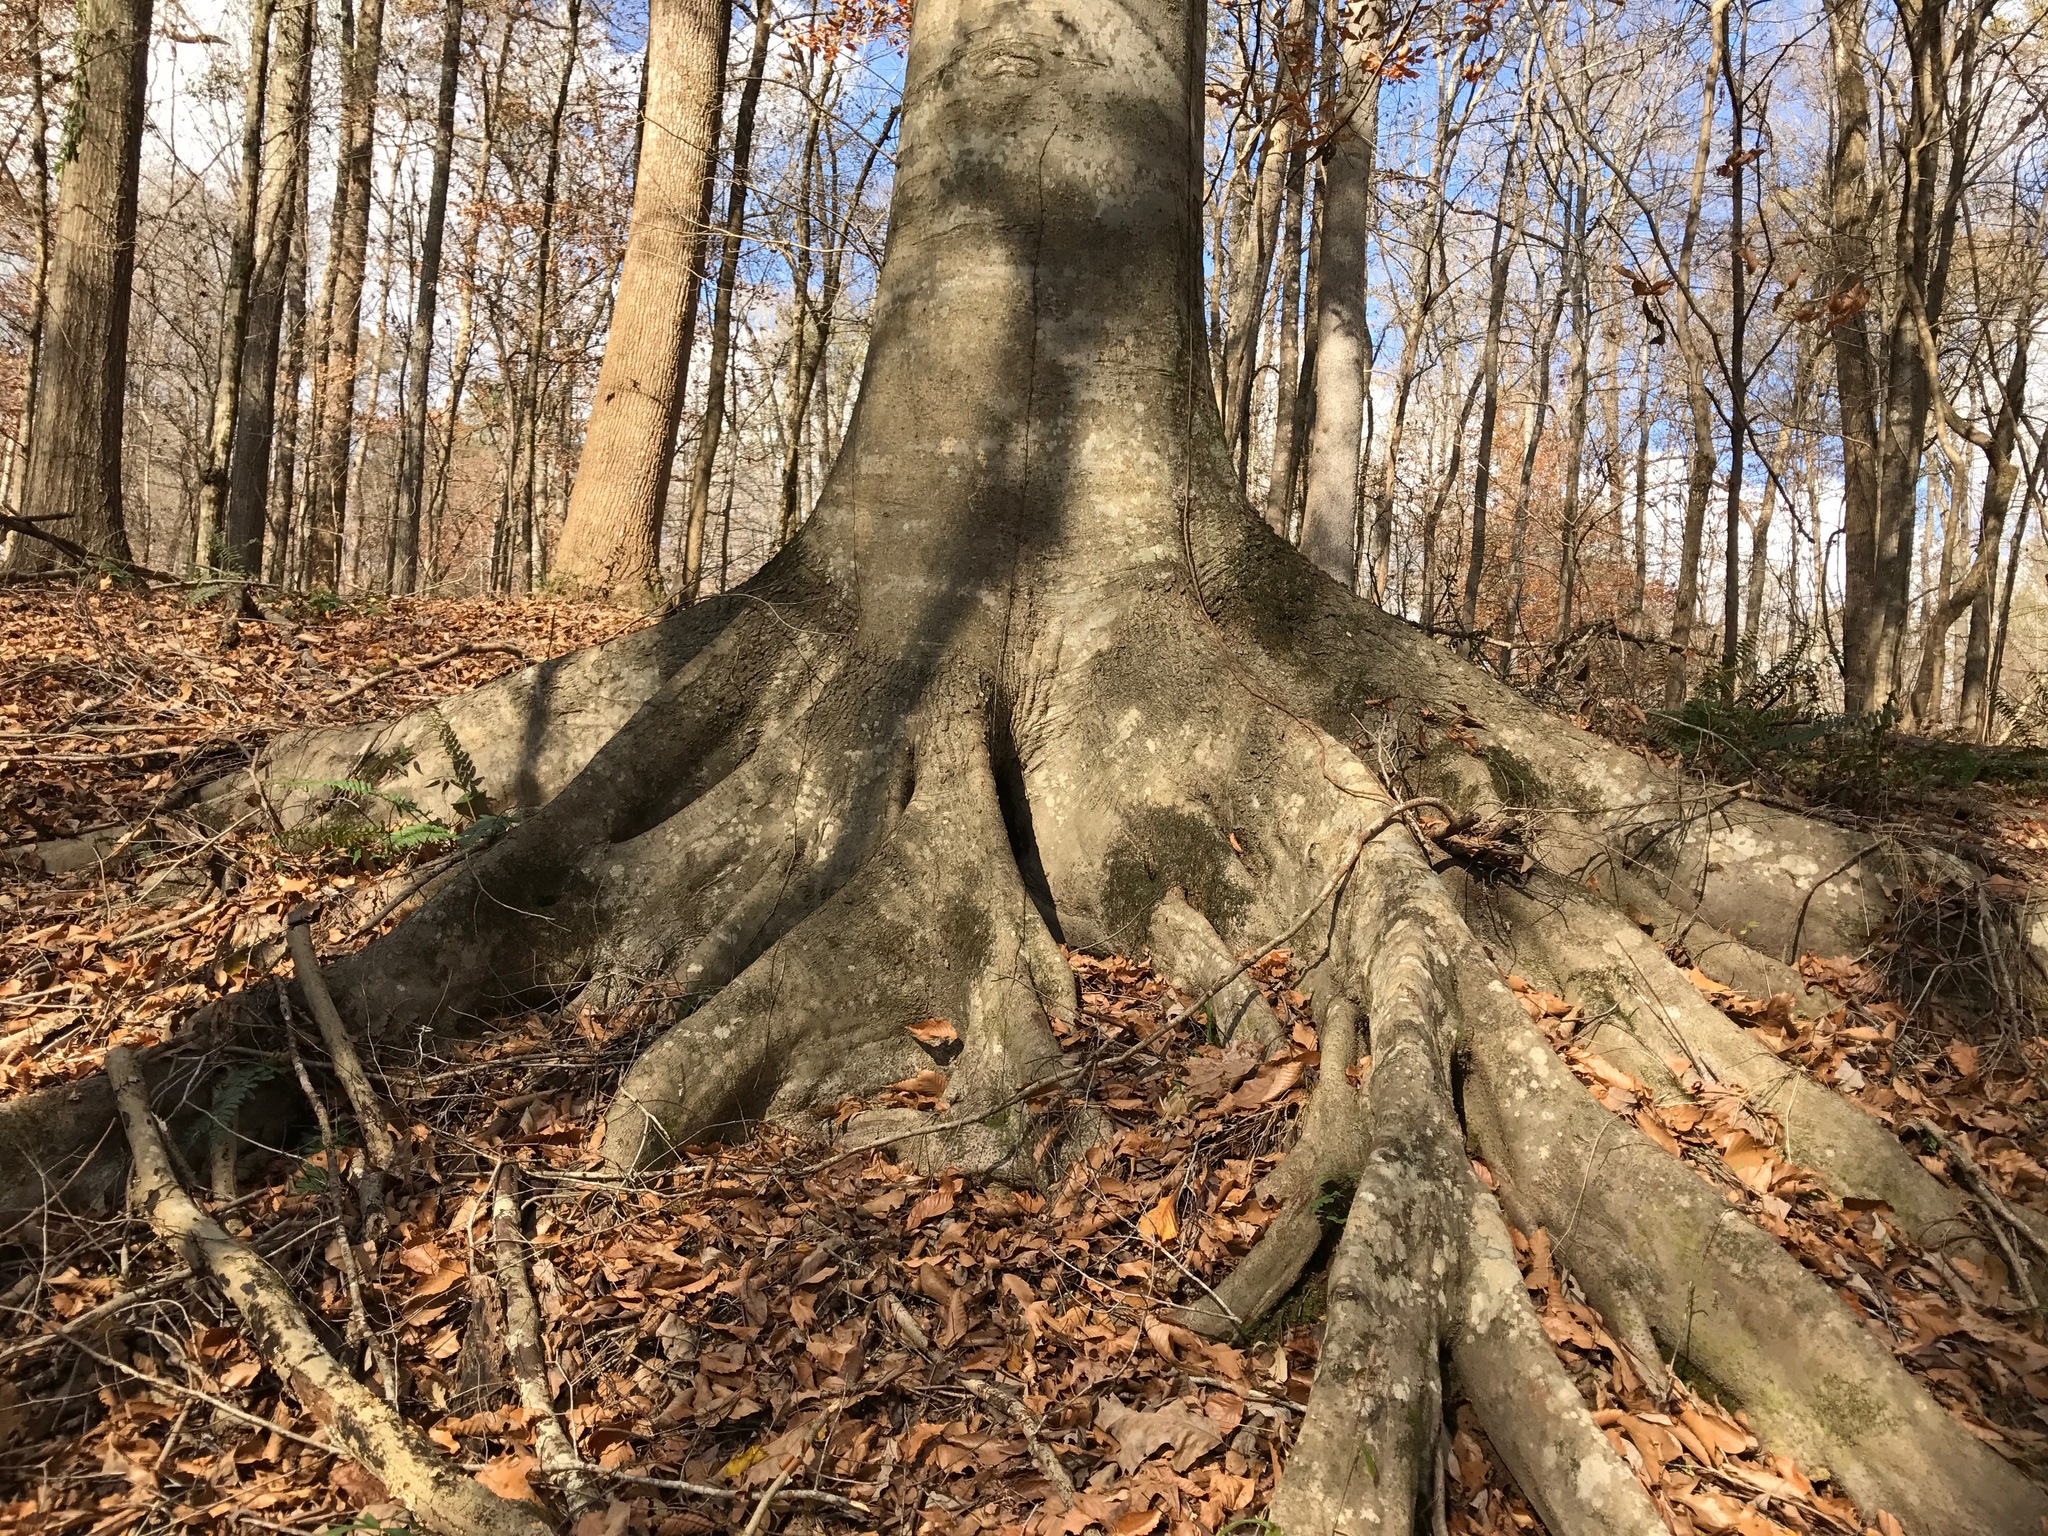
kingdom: Plantae
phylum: Tracheophyta
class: Magnoliopsida
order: Fagales
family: Fagaceae
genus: Fagus
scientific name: Fagus grandifolia
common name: American beech
